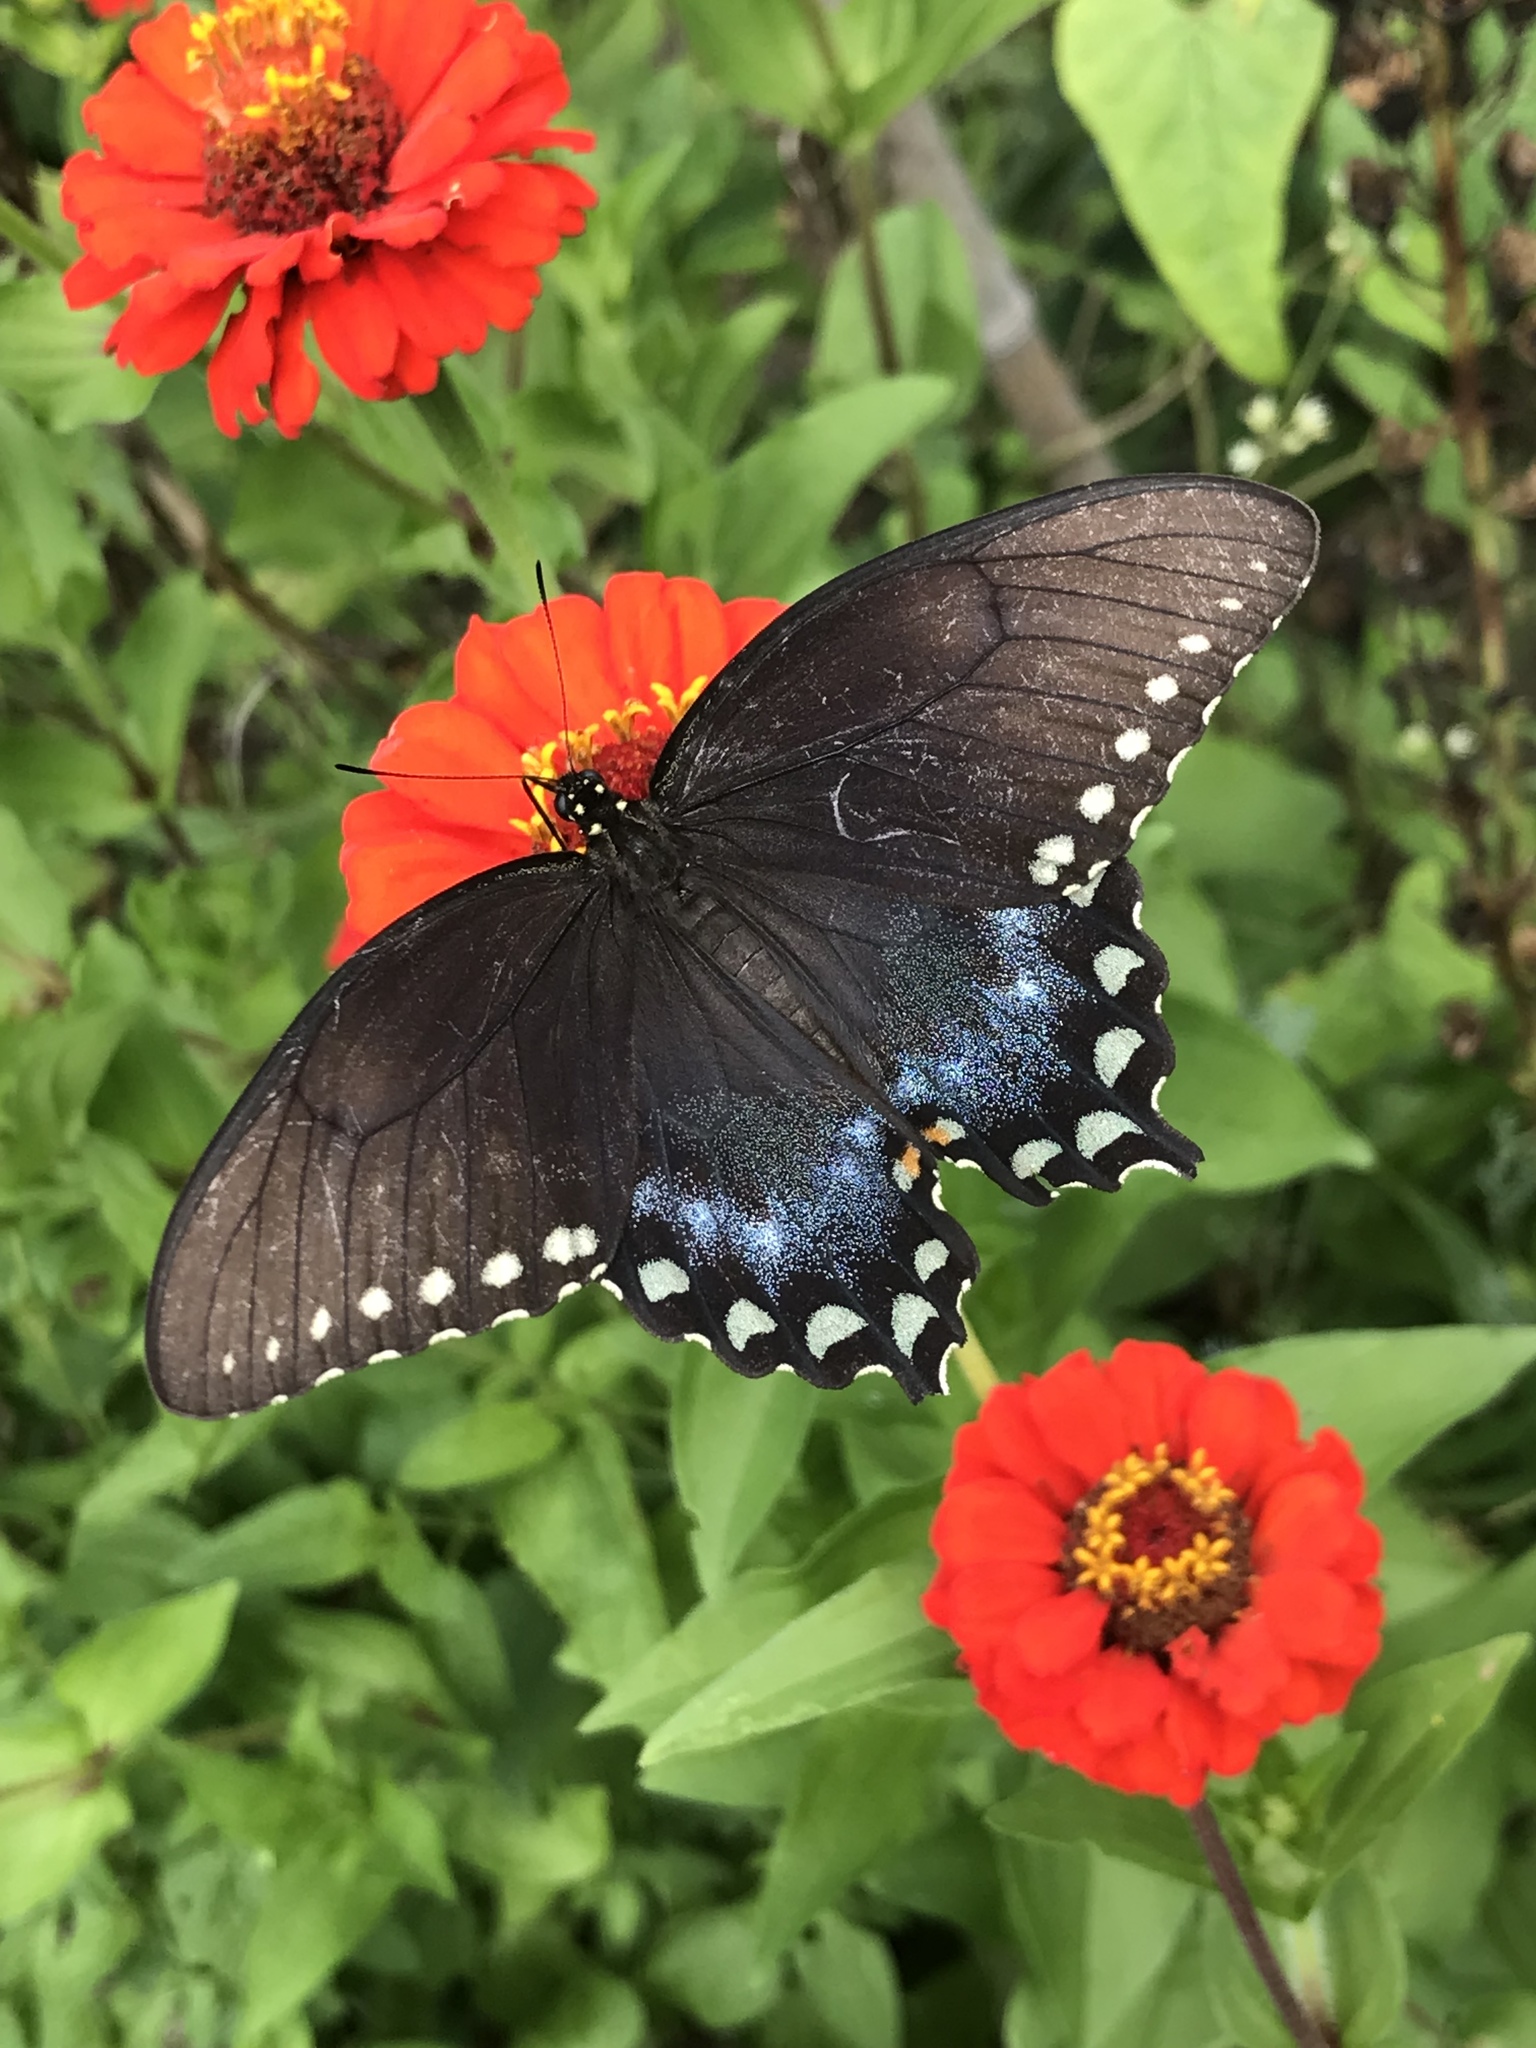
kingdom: Animalia
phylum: Arthropoda
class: Insecta
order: Lepidoptera
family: Papilionidae
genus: Papilio
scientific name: Papilio troilus
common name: Spicebush swallowtail
